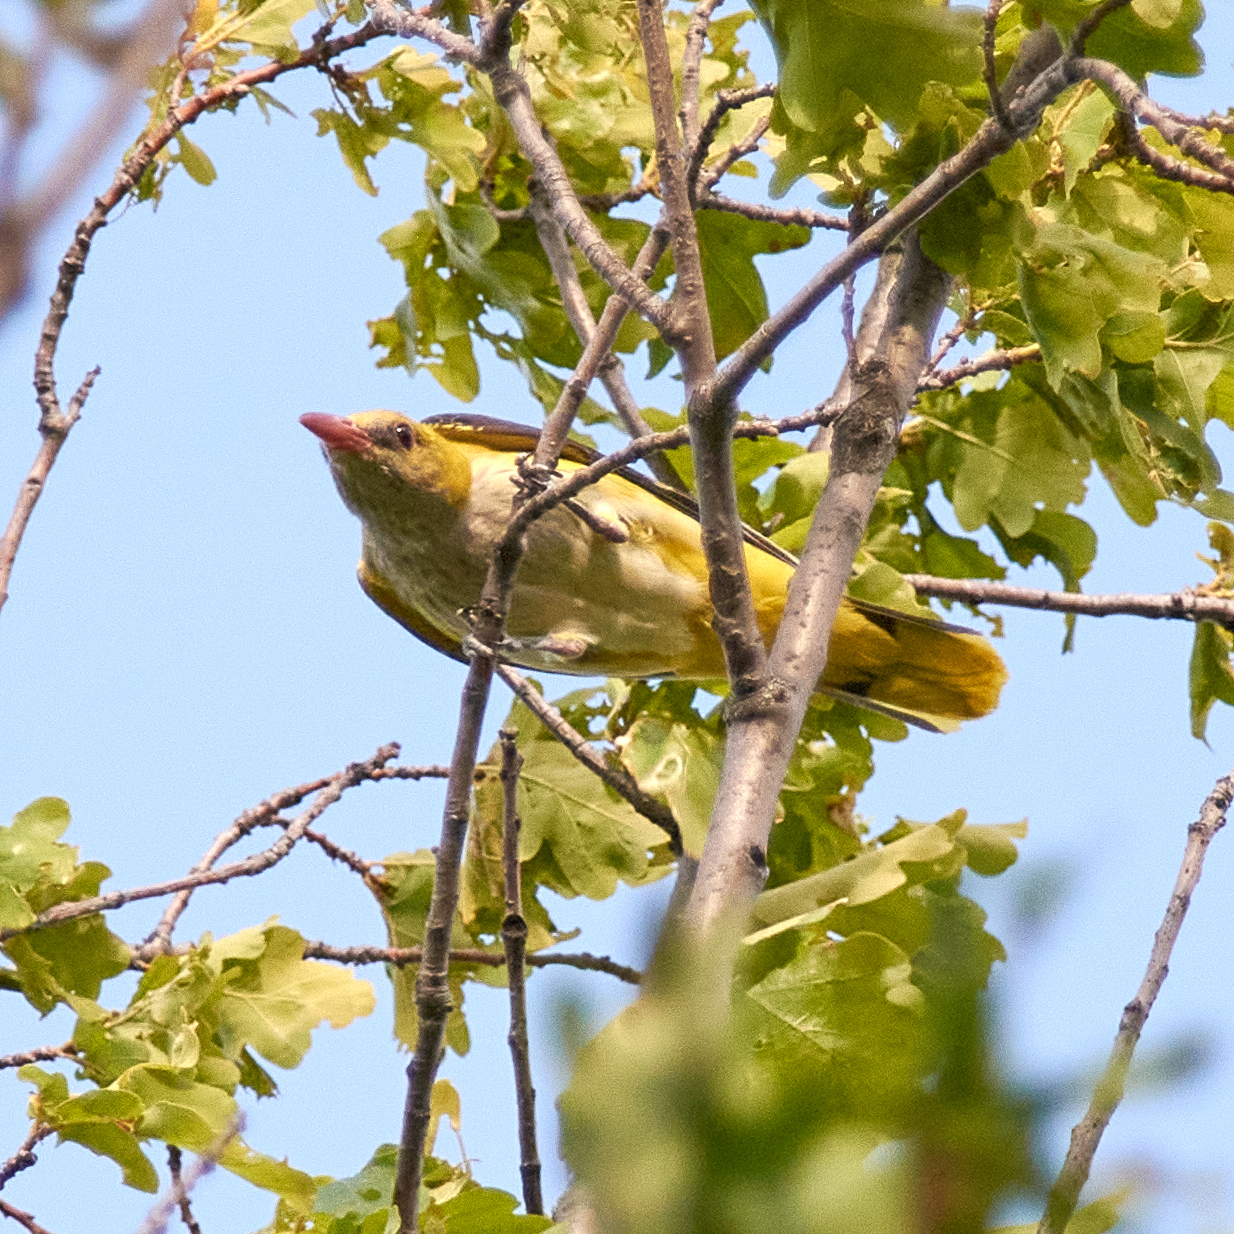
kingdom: Animalia
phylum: Chordata
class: Aves
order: Passeriformes
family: Oriolidae
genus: Oriolus
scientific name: Oriolus oriolus
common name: Eurasian golden oriole
